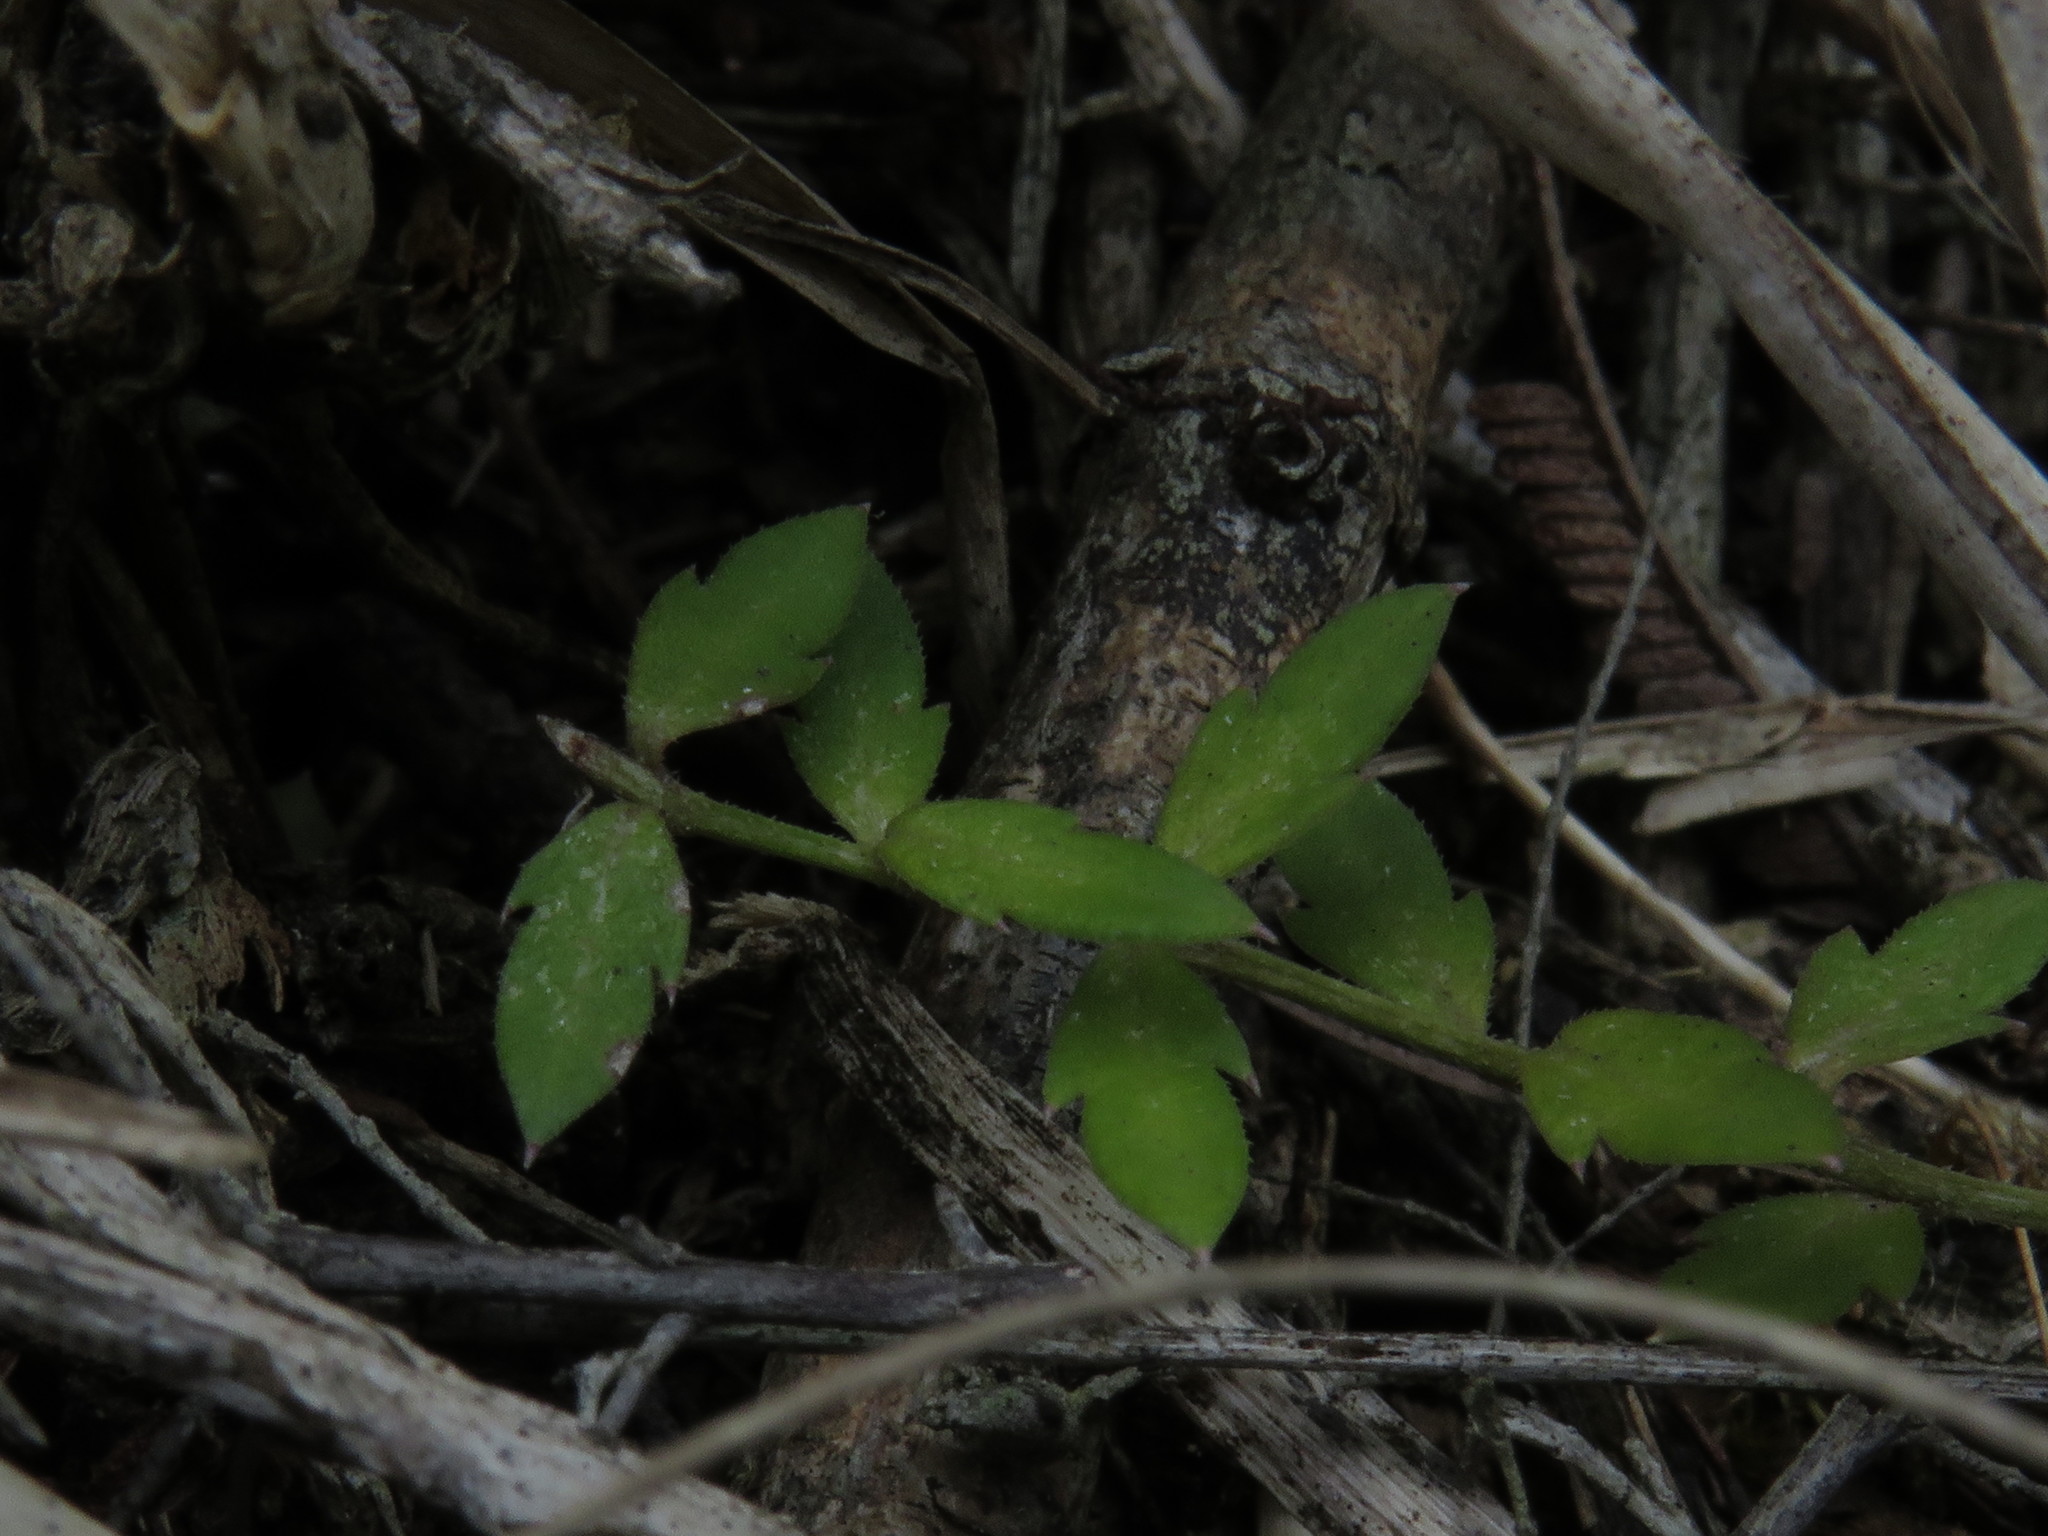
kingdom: Plantae
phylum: Tracheophyta
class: Magnoliopsida
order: Asterales
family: Campanulaceae
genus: Monopsis
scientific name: Monopsis unidentata
